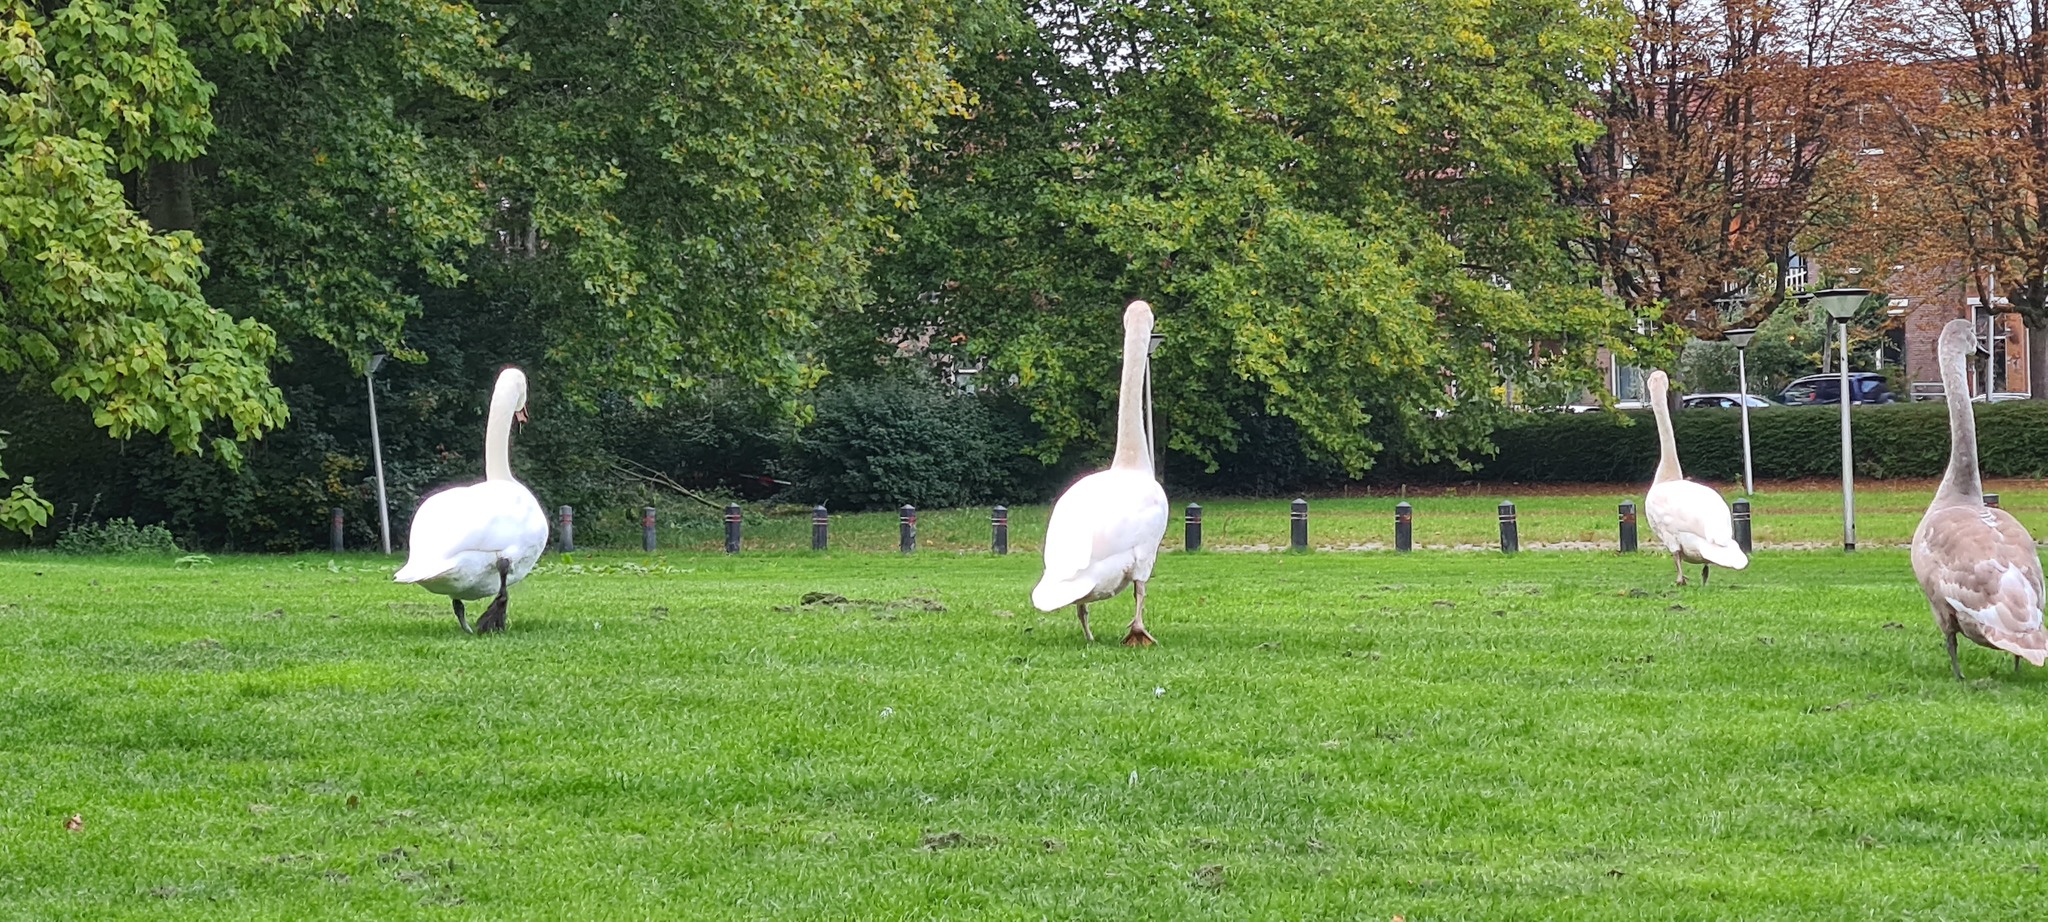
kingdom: Animalia
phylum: Chordata
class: Aves
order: Anseriformes
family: Anatidae
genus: Cygnus
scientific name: Cygnus olor
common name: Mute swan
